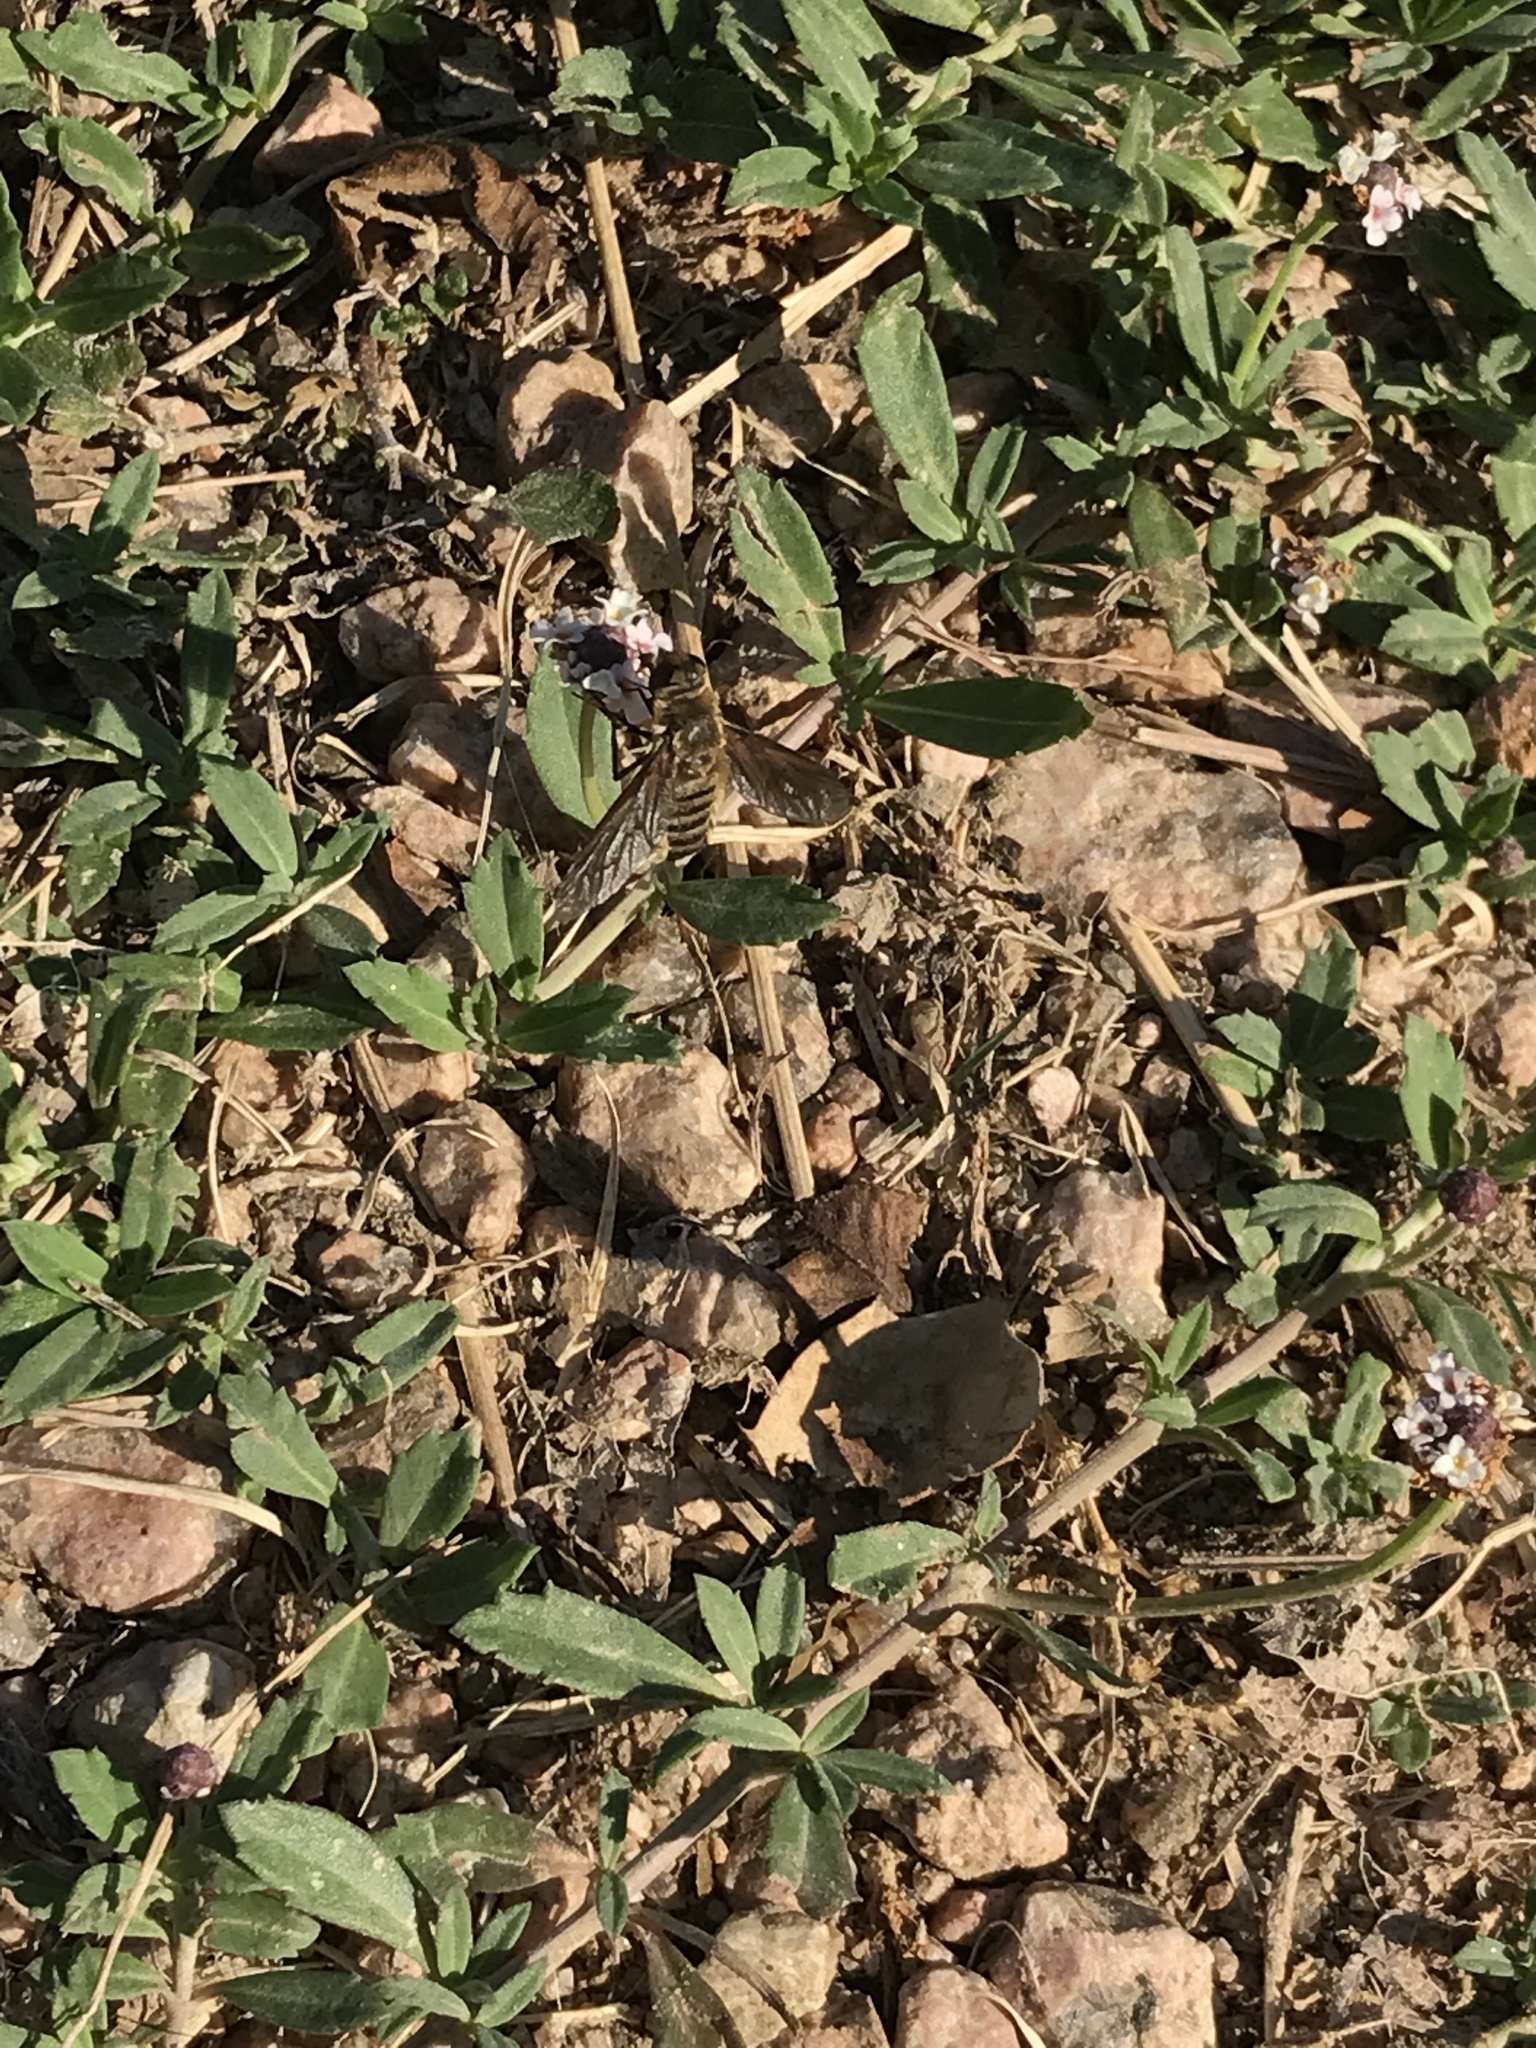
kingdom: Animalia
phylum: Arthropoda
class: Insecta
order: Diptera
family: Bombyliidae
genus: Poecilanthrax
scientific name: Poecilanthrax lucifer
